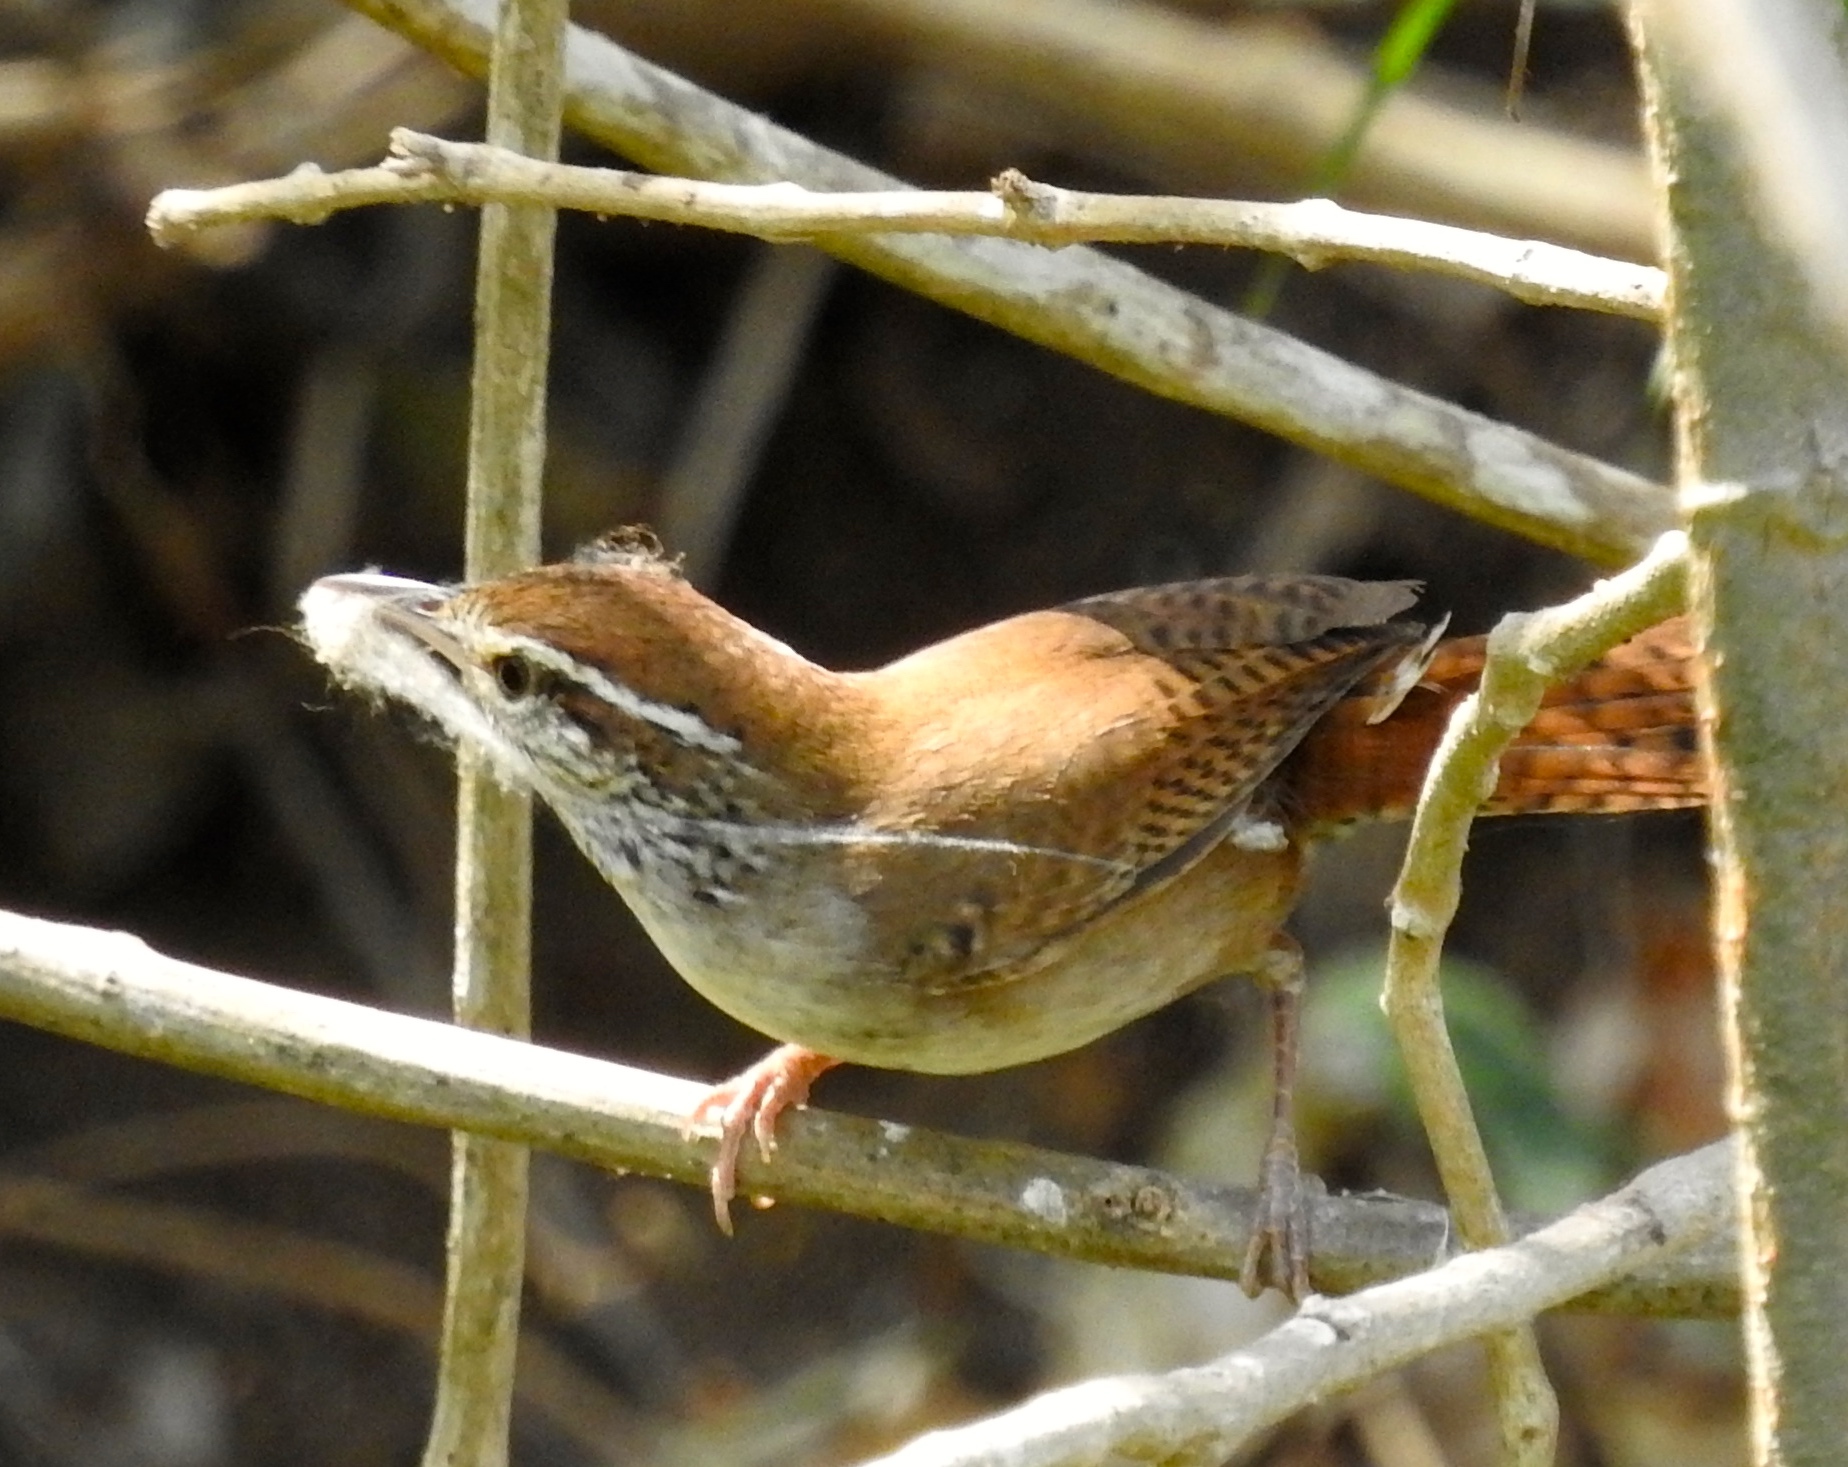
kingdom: Animalia
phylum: Chordata
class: Aves
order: Passeriformes
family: Troglodytidae
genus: Thryophilus
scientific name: Thryophilus sinaloa
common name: Sinaloa wren
